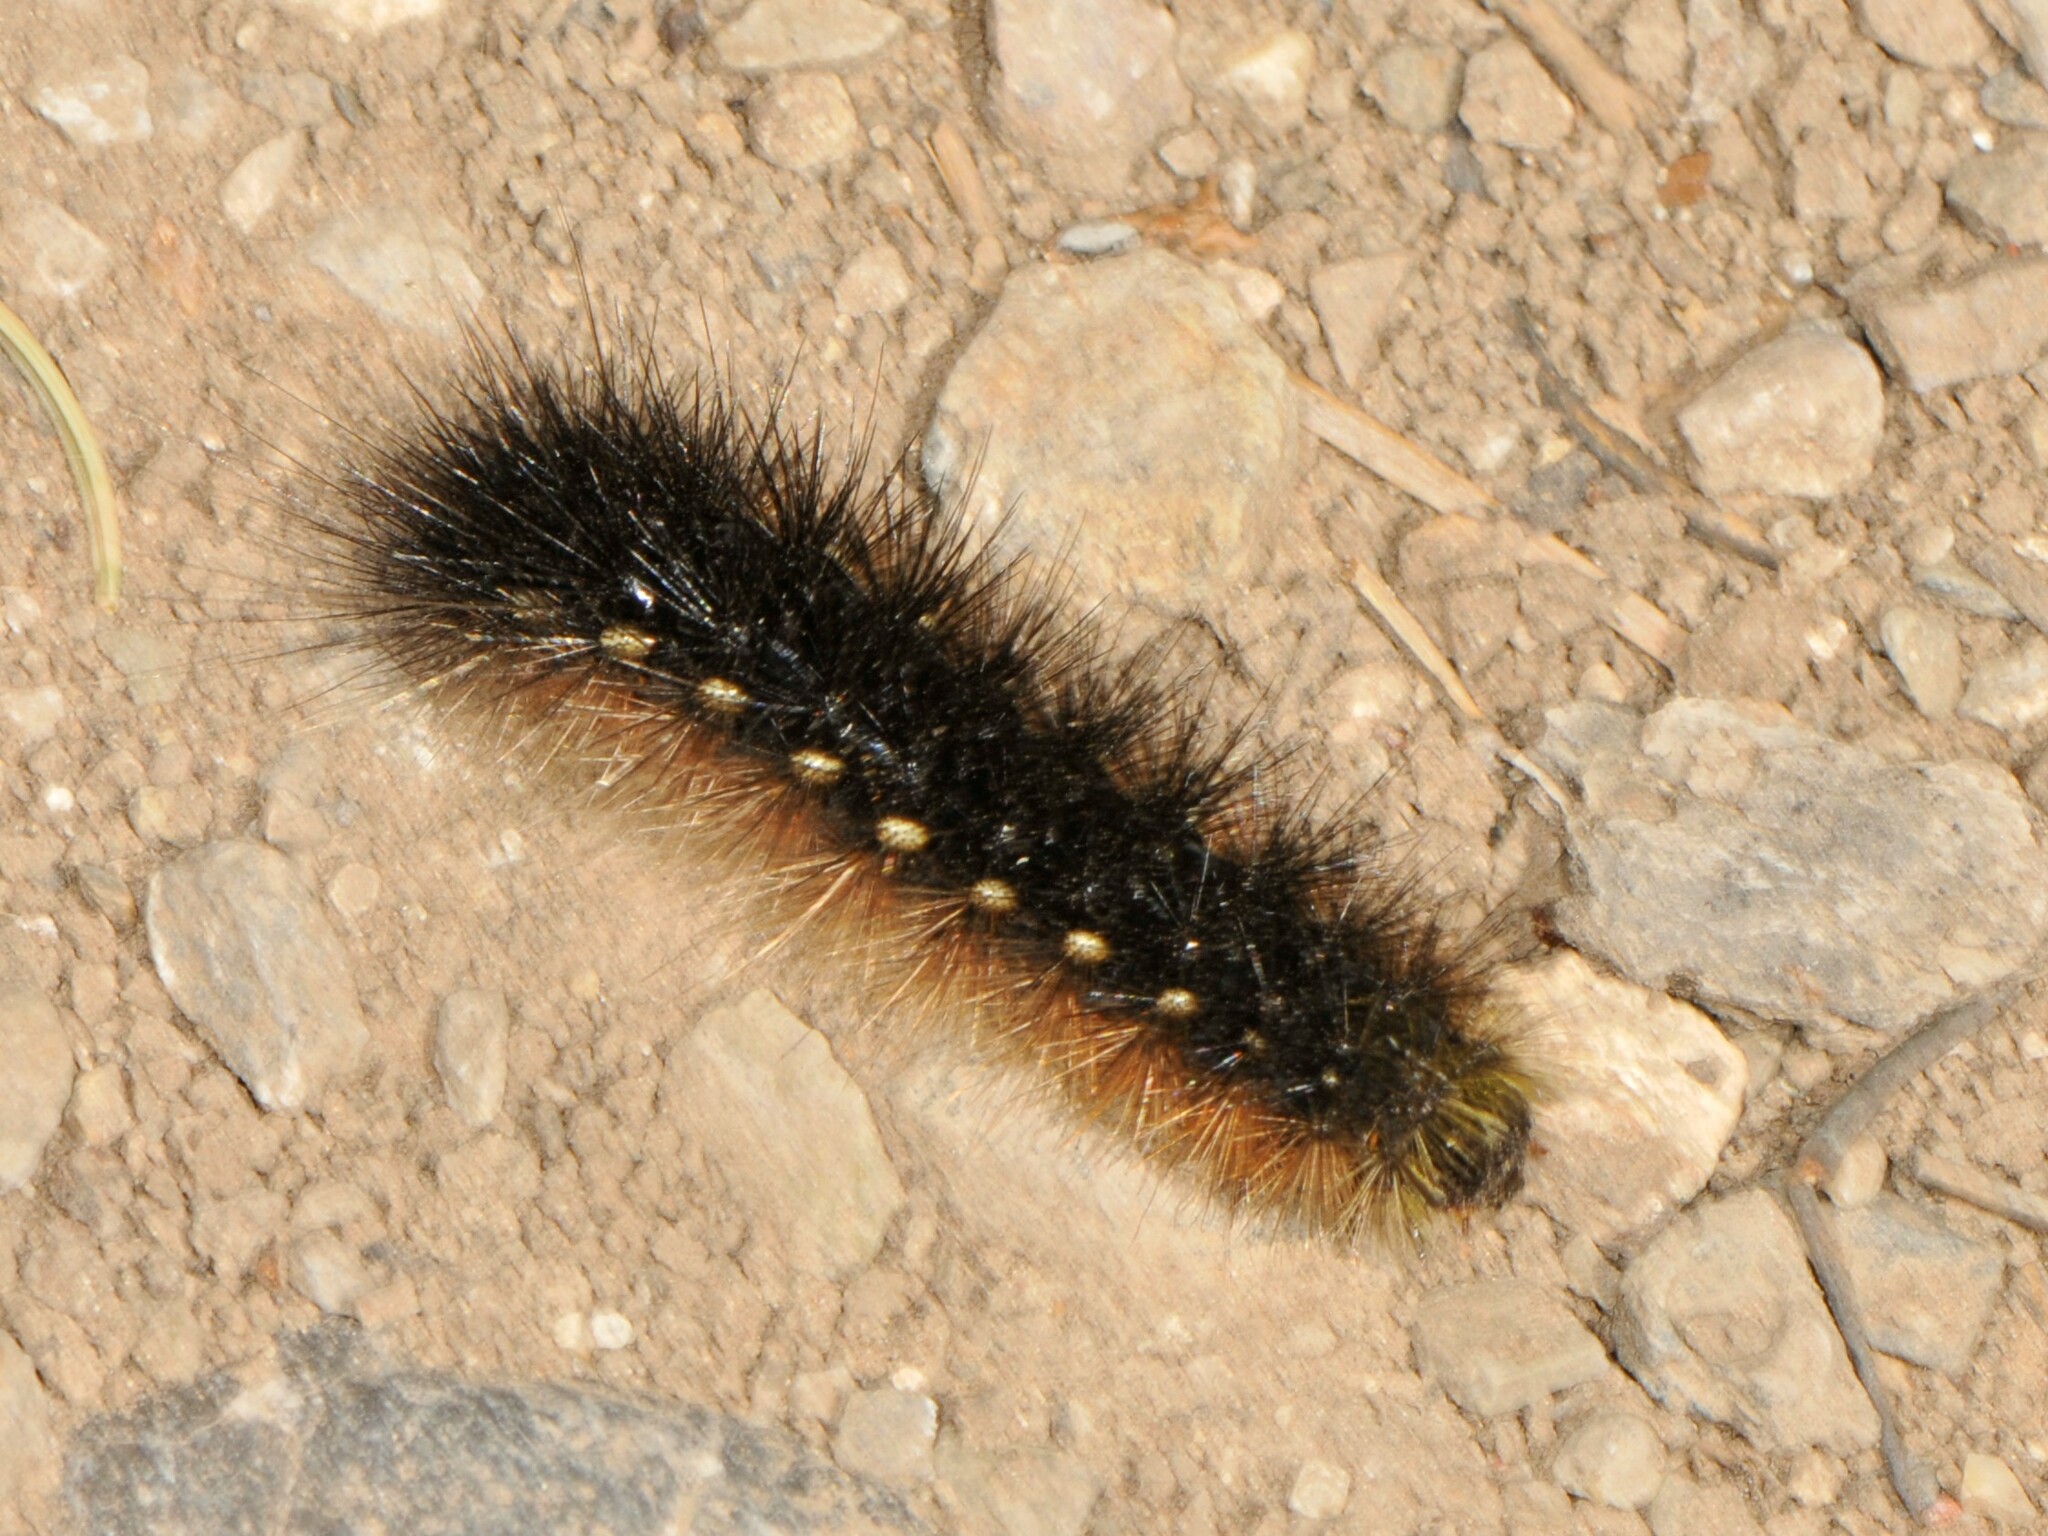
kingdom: Animalia
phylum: Arthropoda
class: Insecta
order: Lepidoptera
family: Erebidae
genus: Apantesis
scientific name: Apantesis
